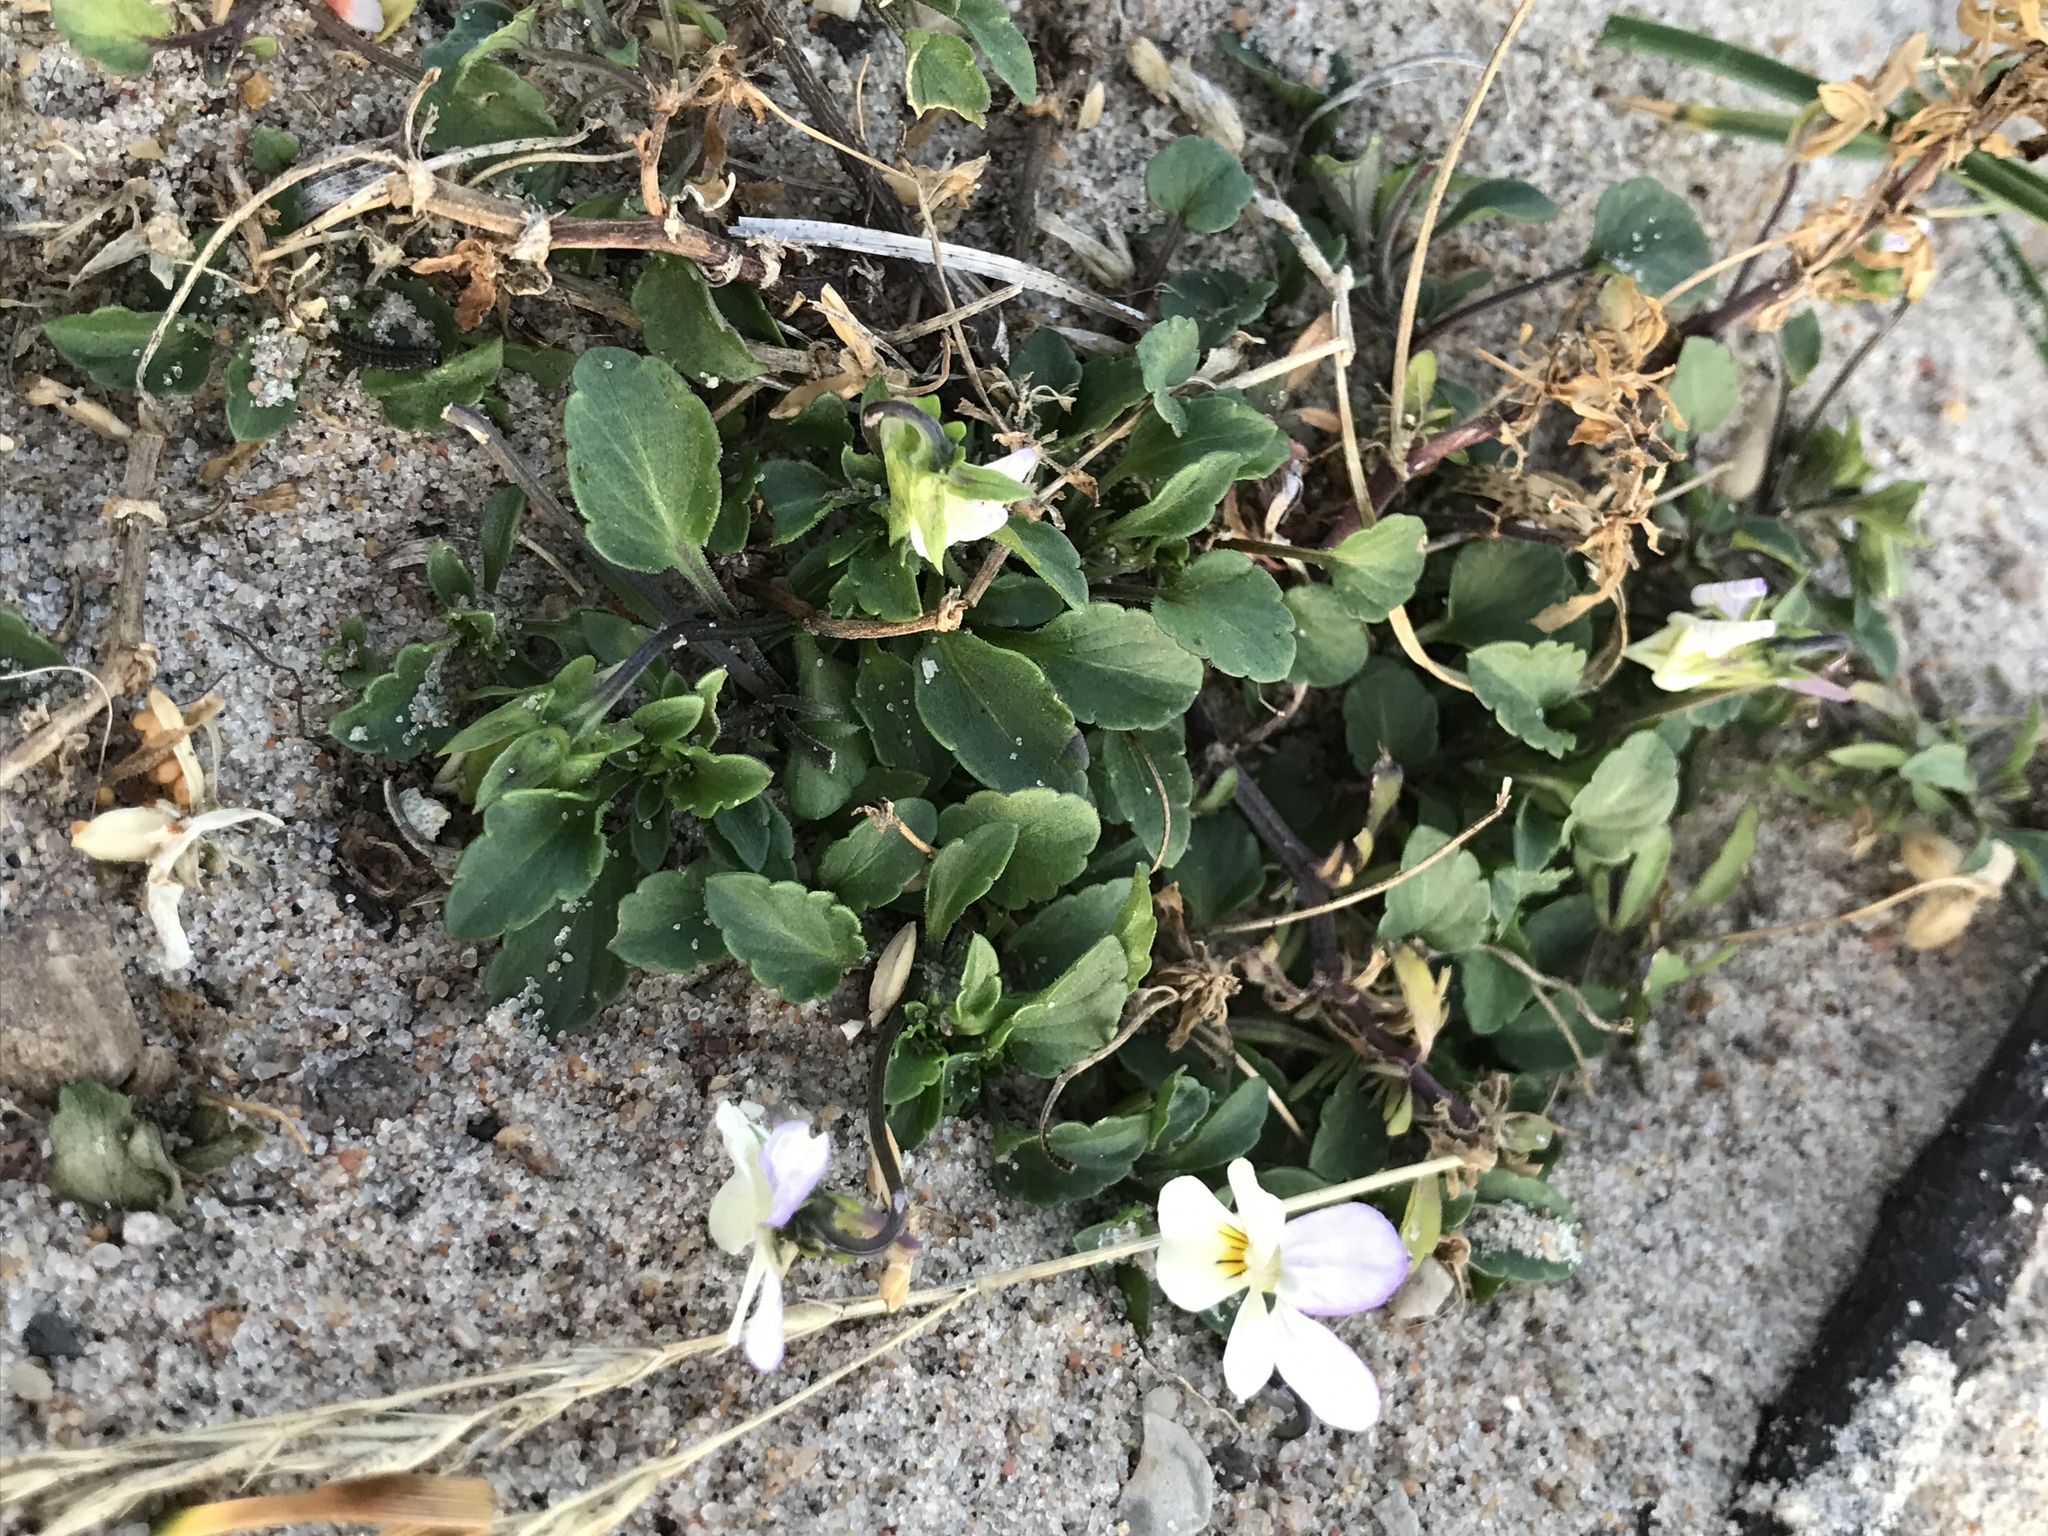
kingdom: Plantae
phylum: Tracheophyta
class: Magnoliopsida
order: Malpighiales
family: Violaceae
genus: Viola
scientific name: Viola arvensis
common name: Field pansy
